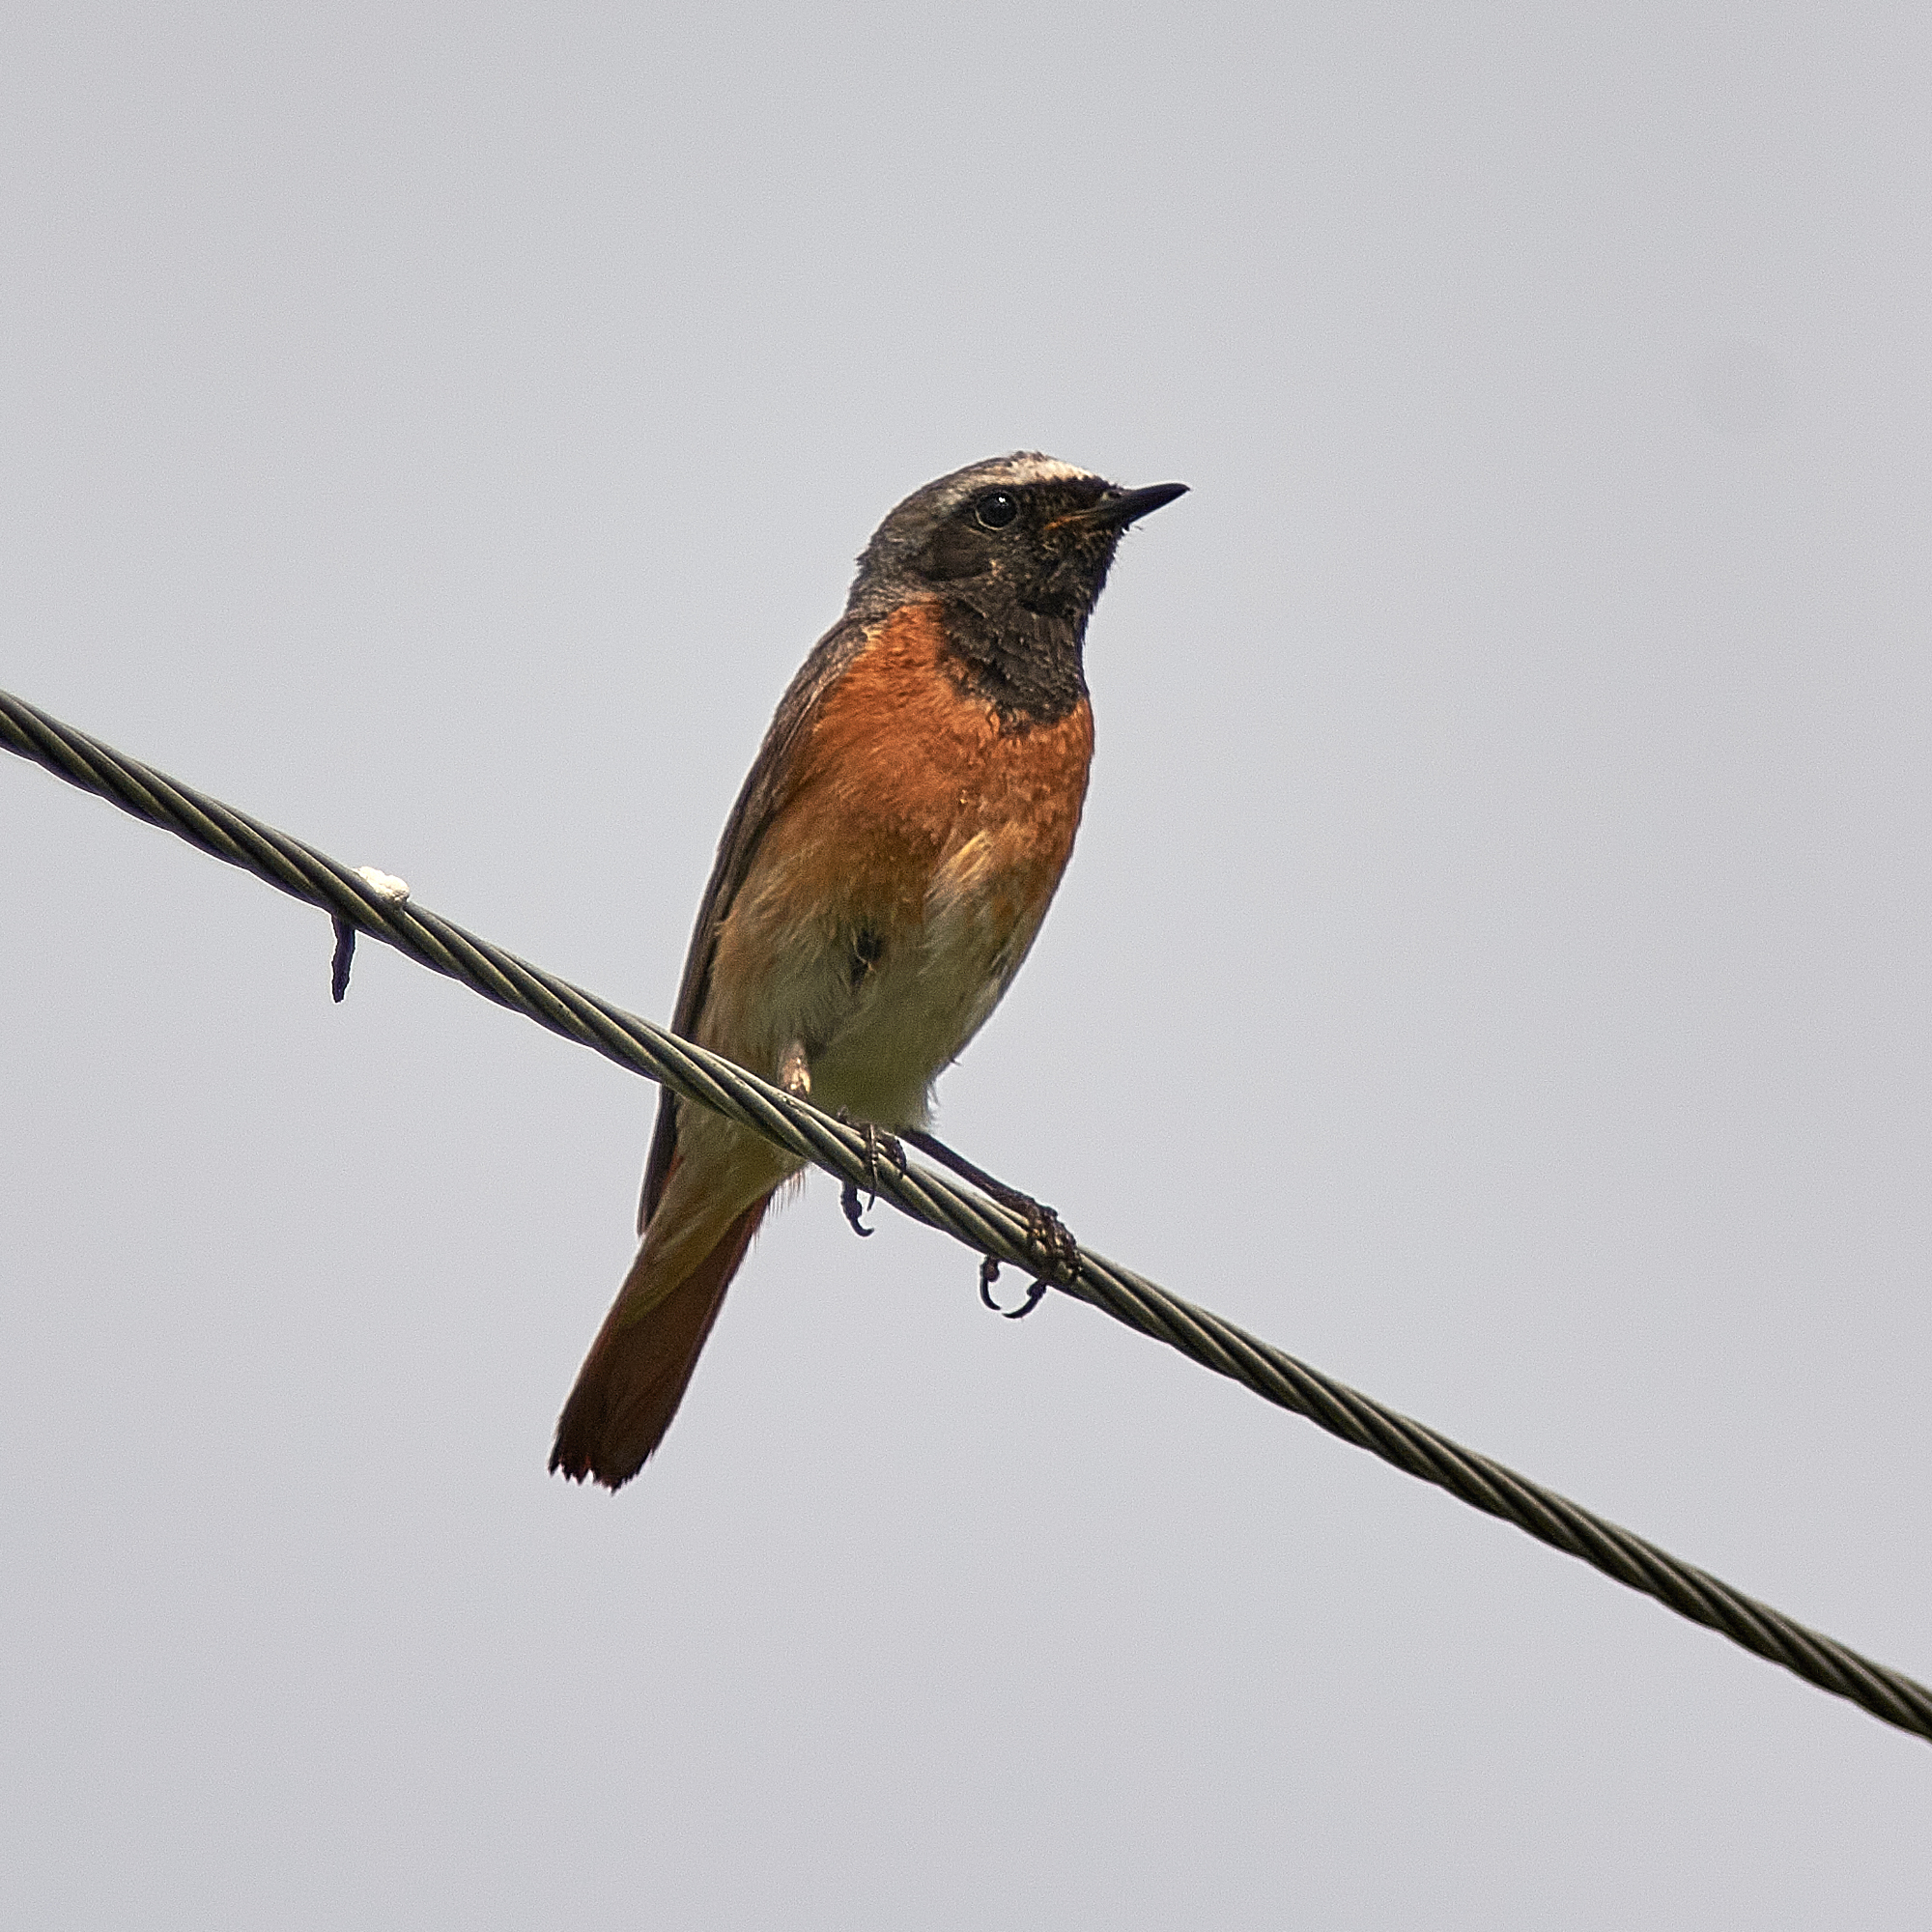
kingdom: Animalia
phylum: Chordata
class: Aves
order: Passeriformes
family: Muscicapidae
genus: Phoenicurus
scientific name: Phoenicurus phoenicurus
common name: Common redstart
